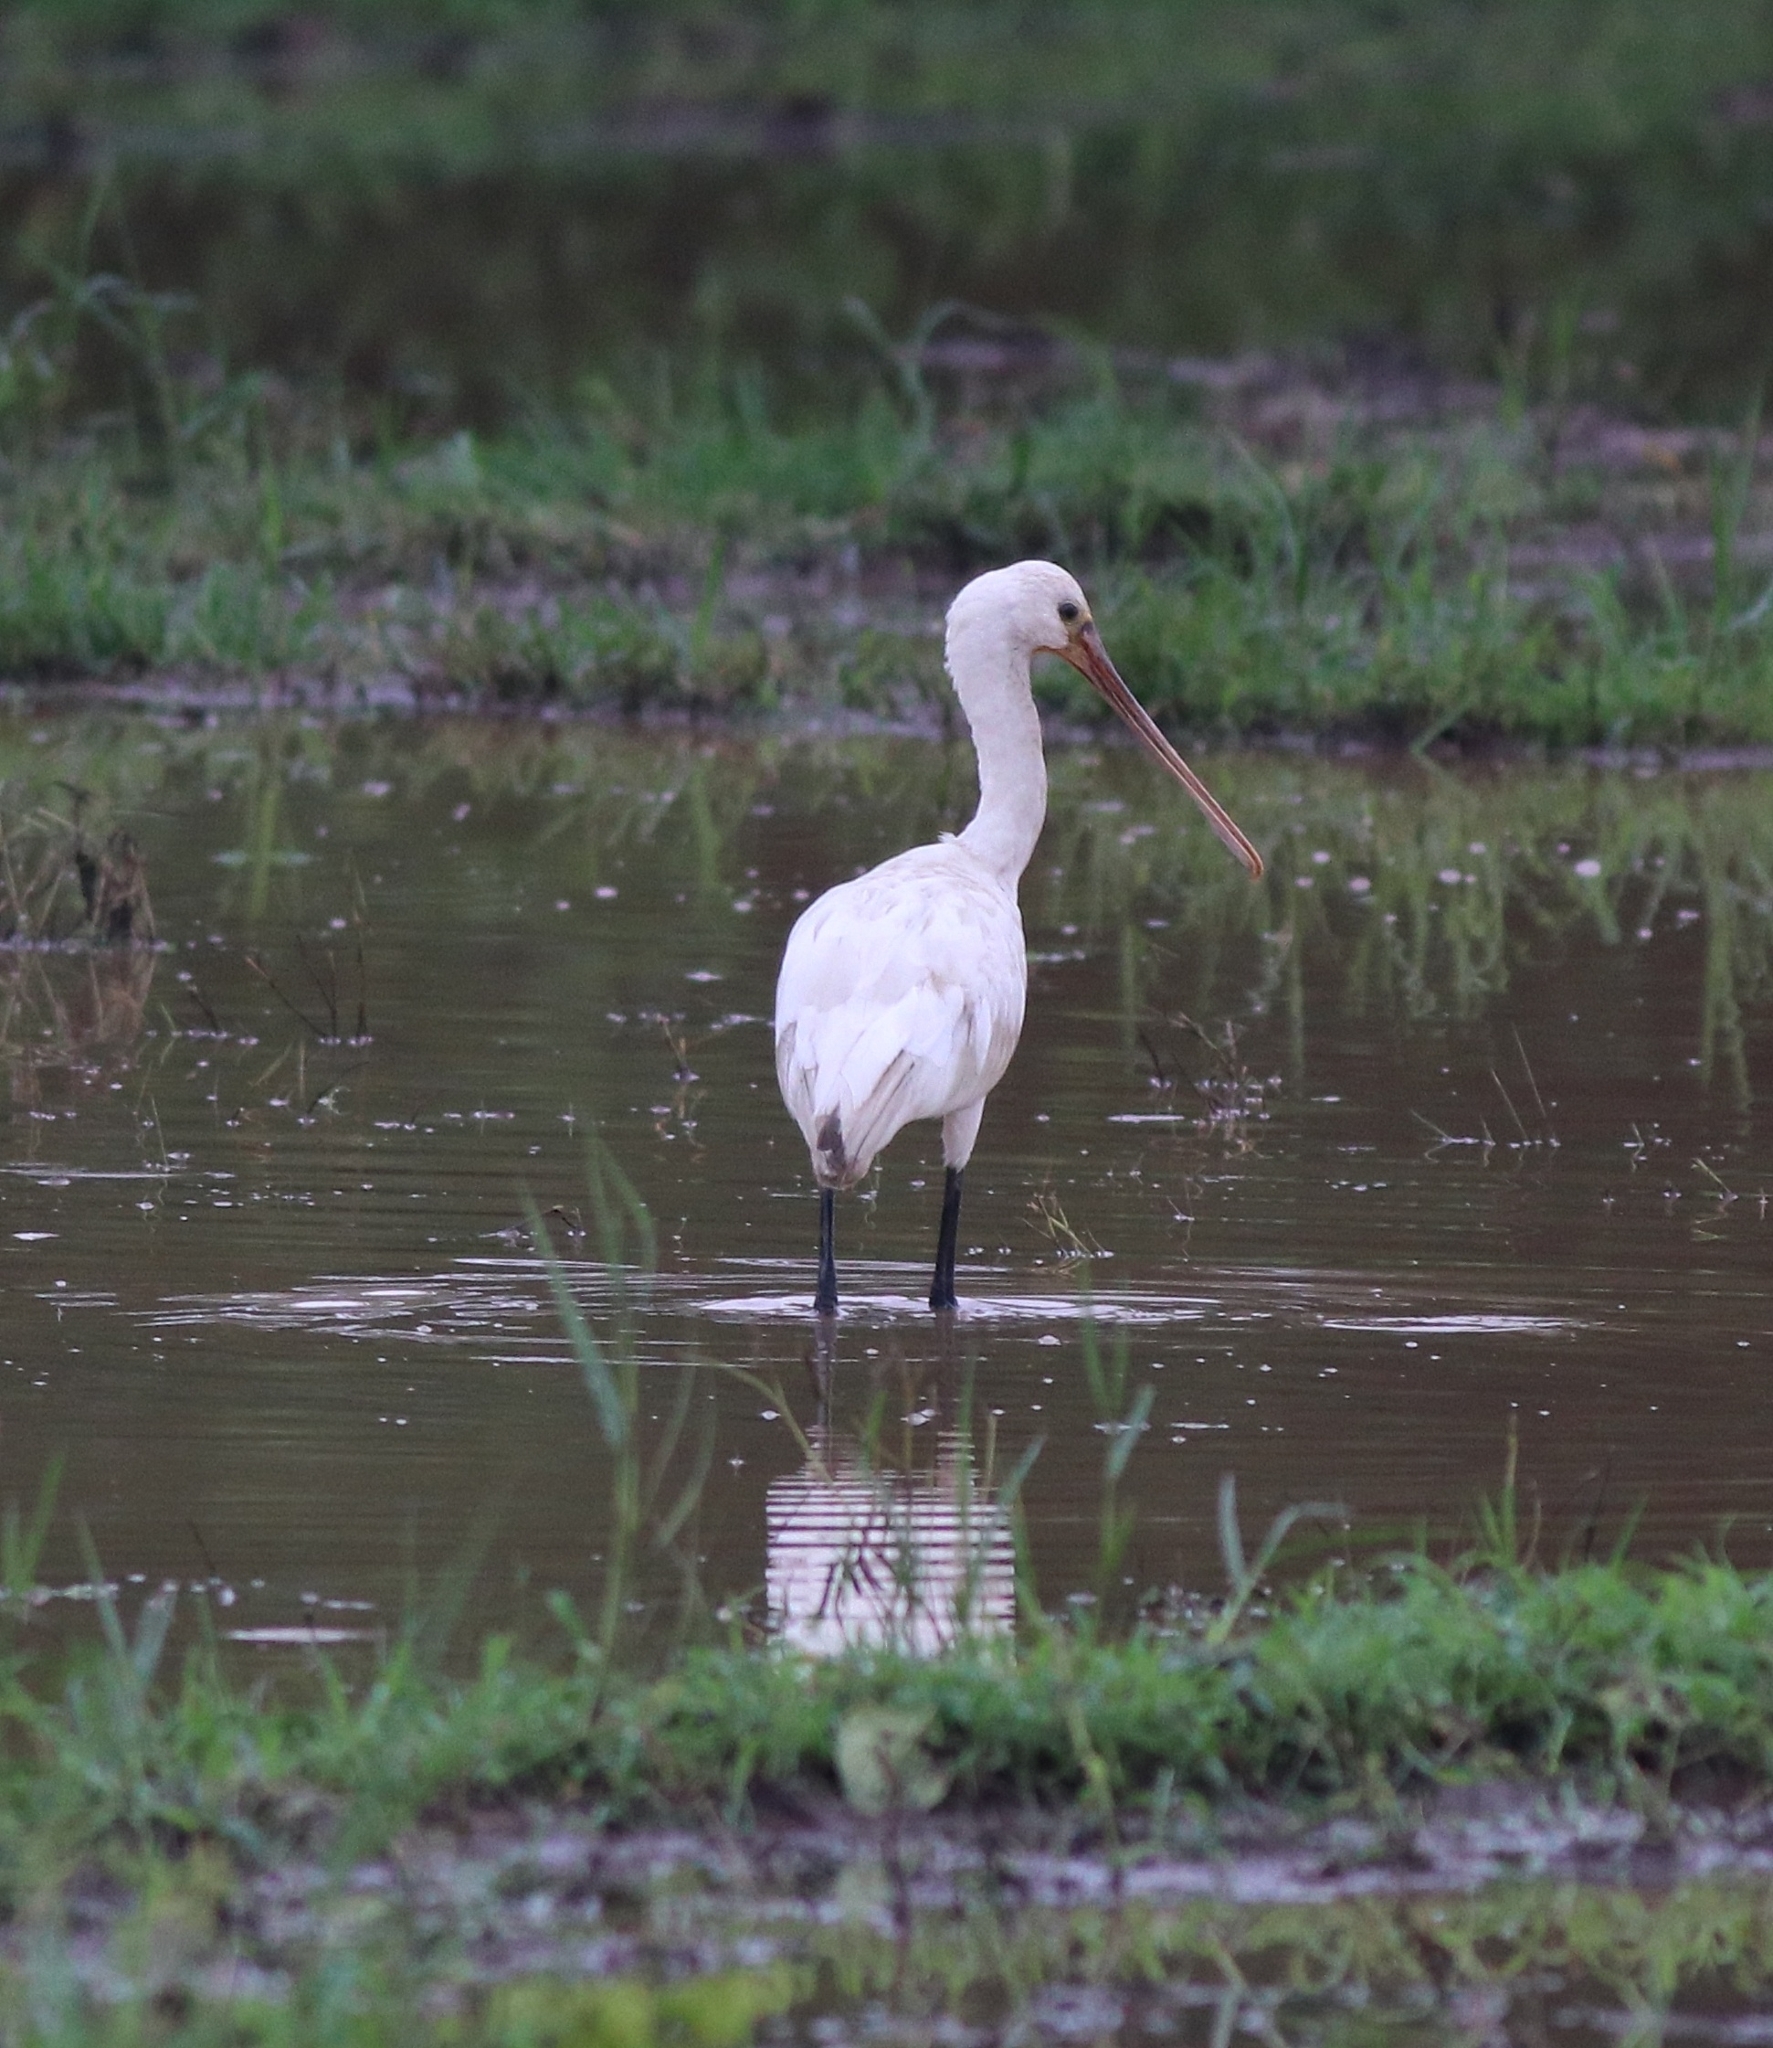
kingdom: Animalia
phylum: Chordata
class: Aves
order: Pelecaniformes
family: Threskiornithidae
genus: Platalea
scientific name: Platalea leucorodia
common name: Eurasian spoonbill
